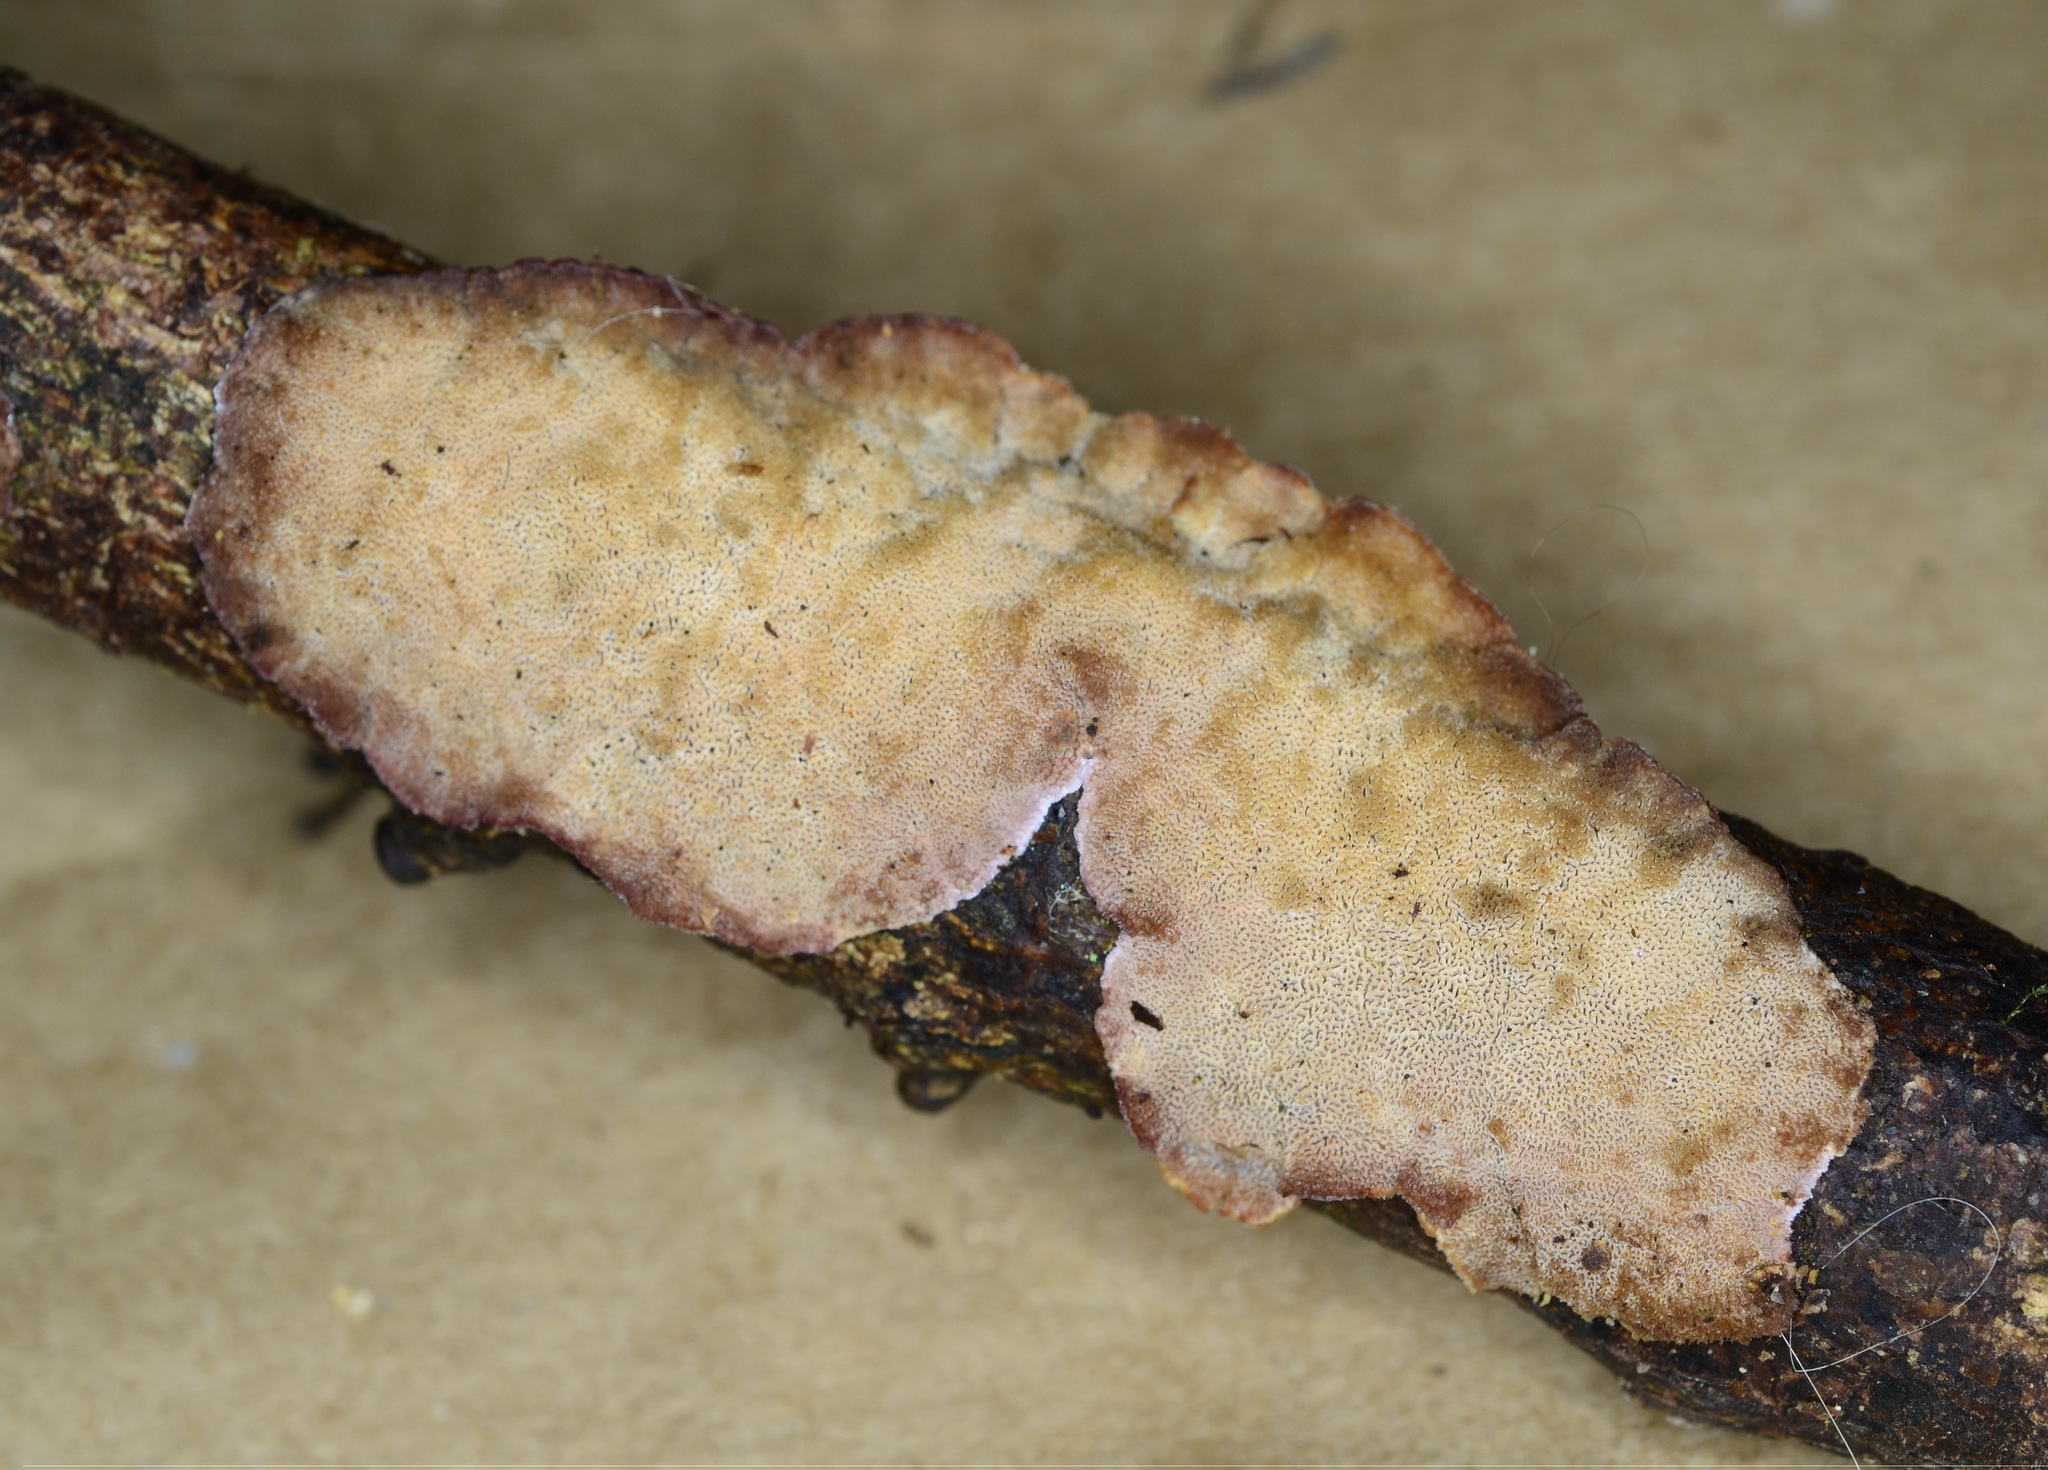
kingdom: Fungi
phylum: Basidiomycota
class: Agaricomycetes
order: Hymenochaetales
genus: Trichaptum
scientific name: Trichaptum abietinum
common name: Purplepore bracket
